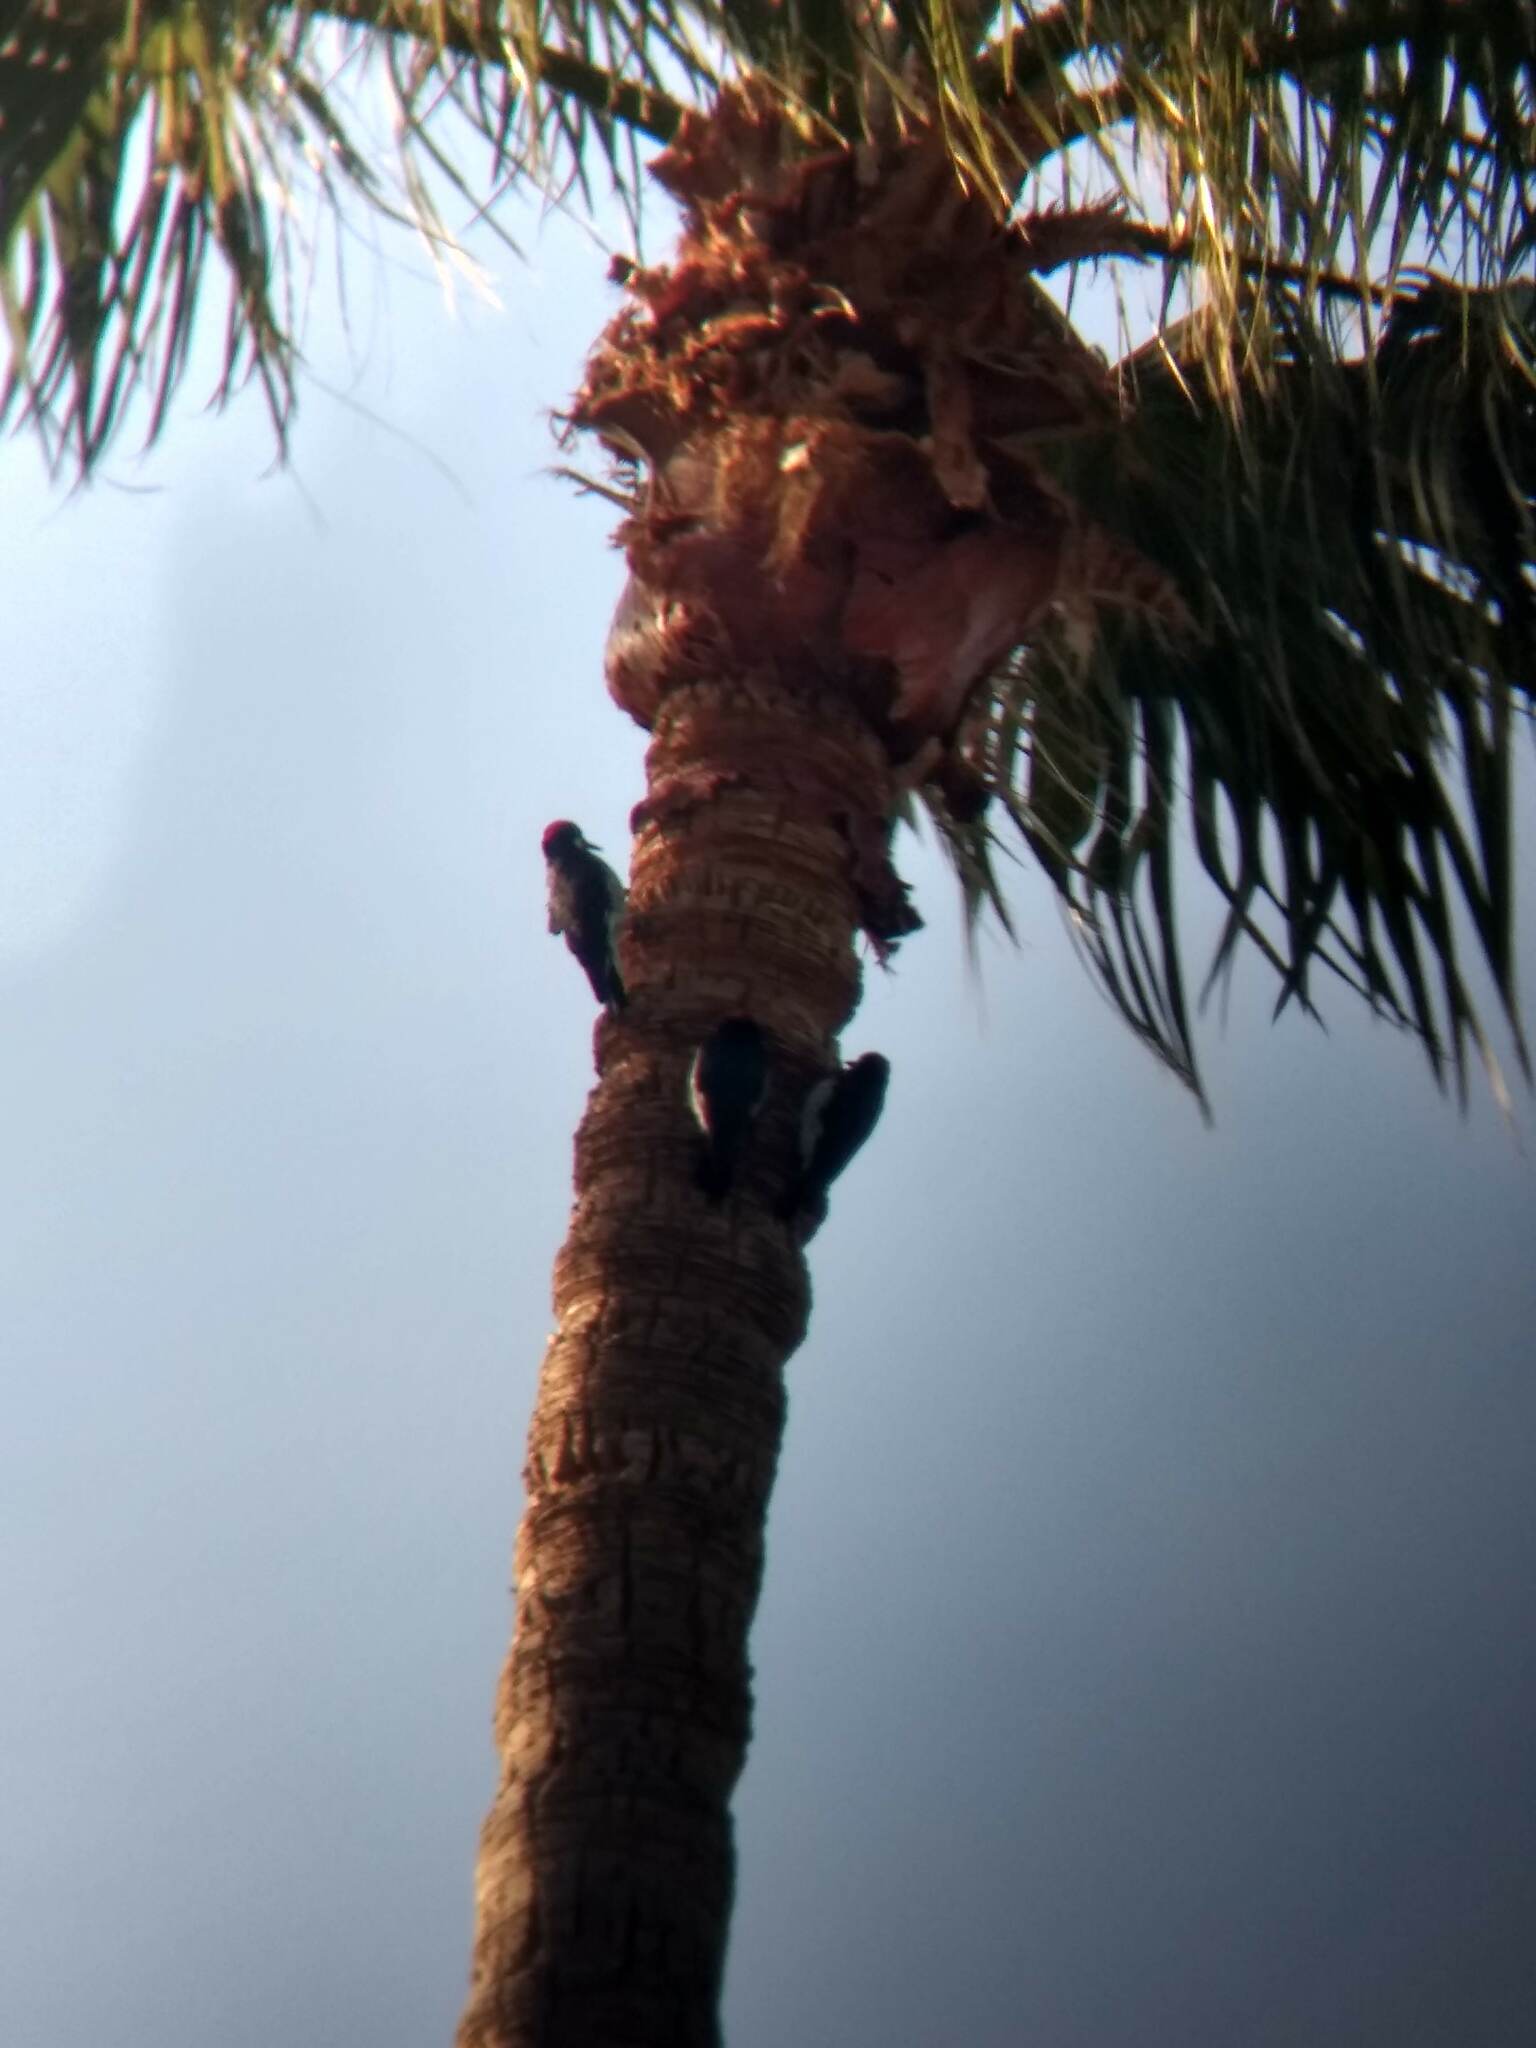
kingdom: Animalia
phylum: Chordata
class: Aves
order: Piciformes
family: Picidae
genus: Melanerpes
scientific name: Melanerpes formicivorus
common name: Acorn woodpecker
